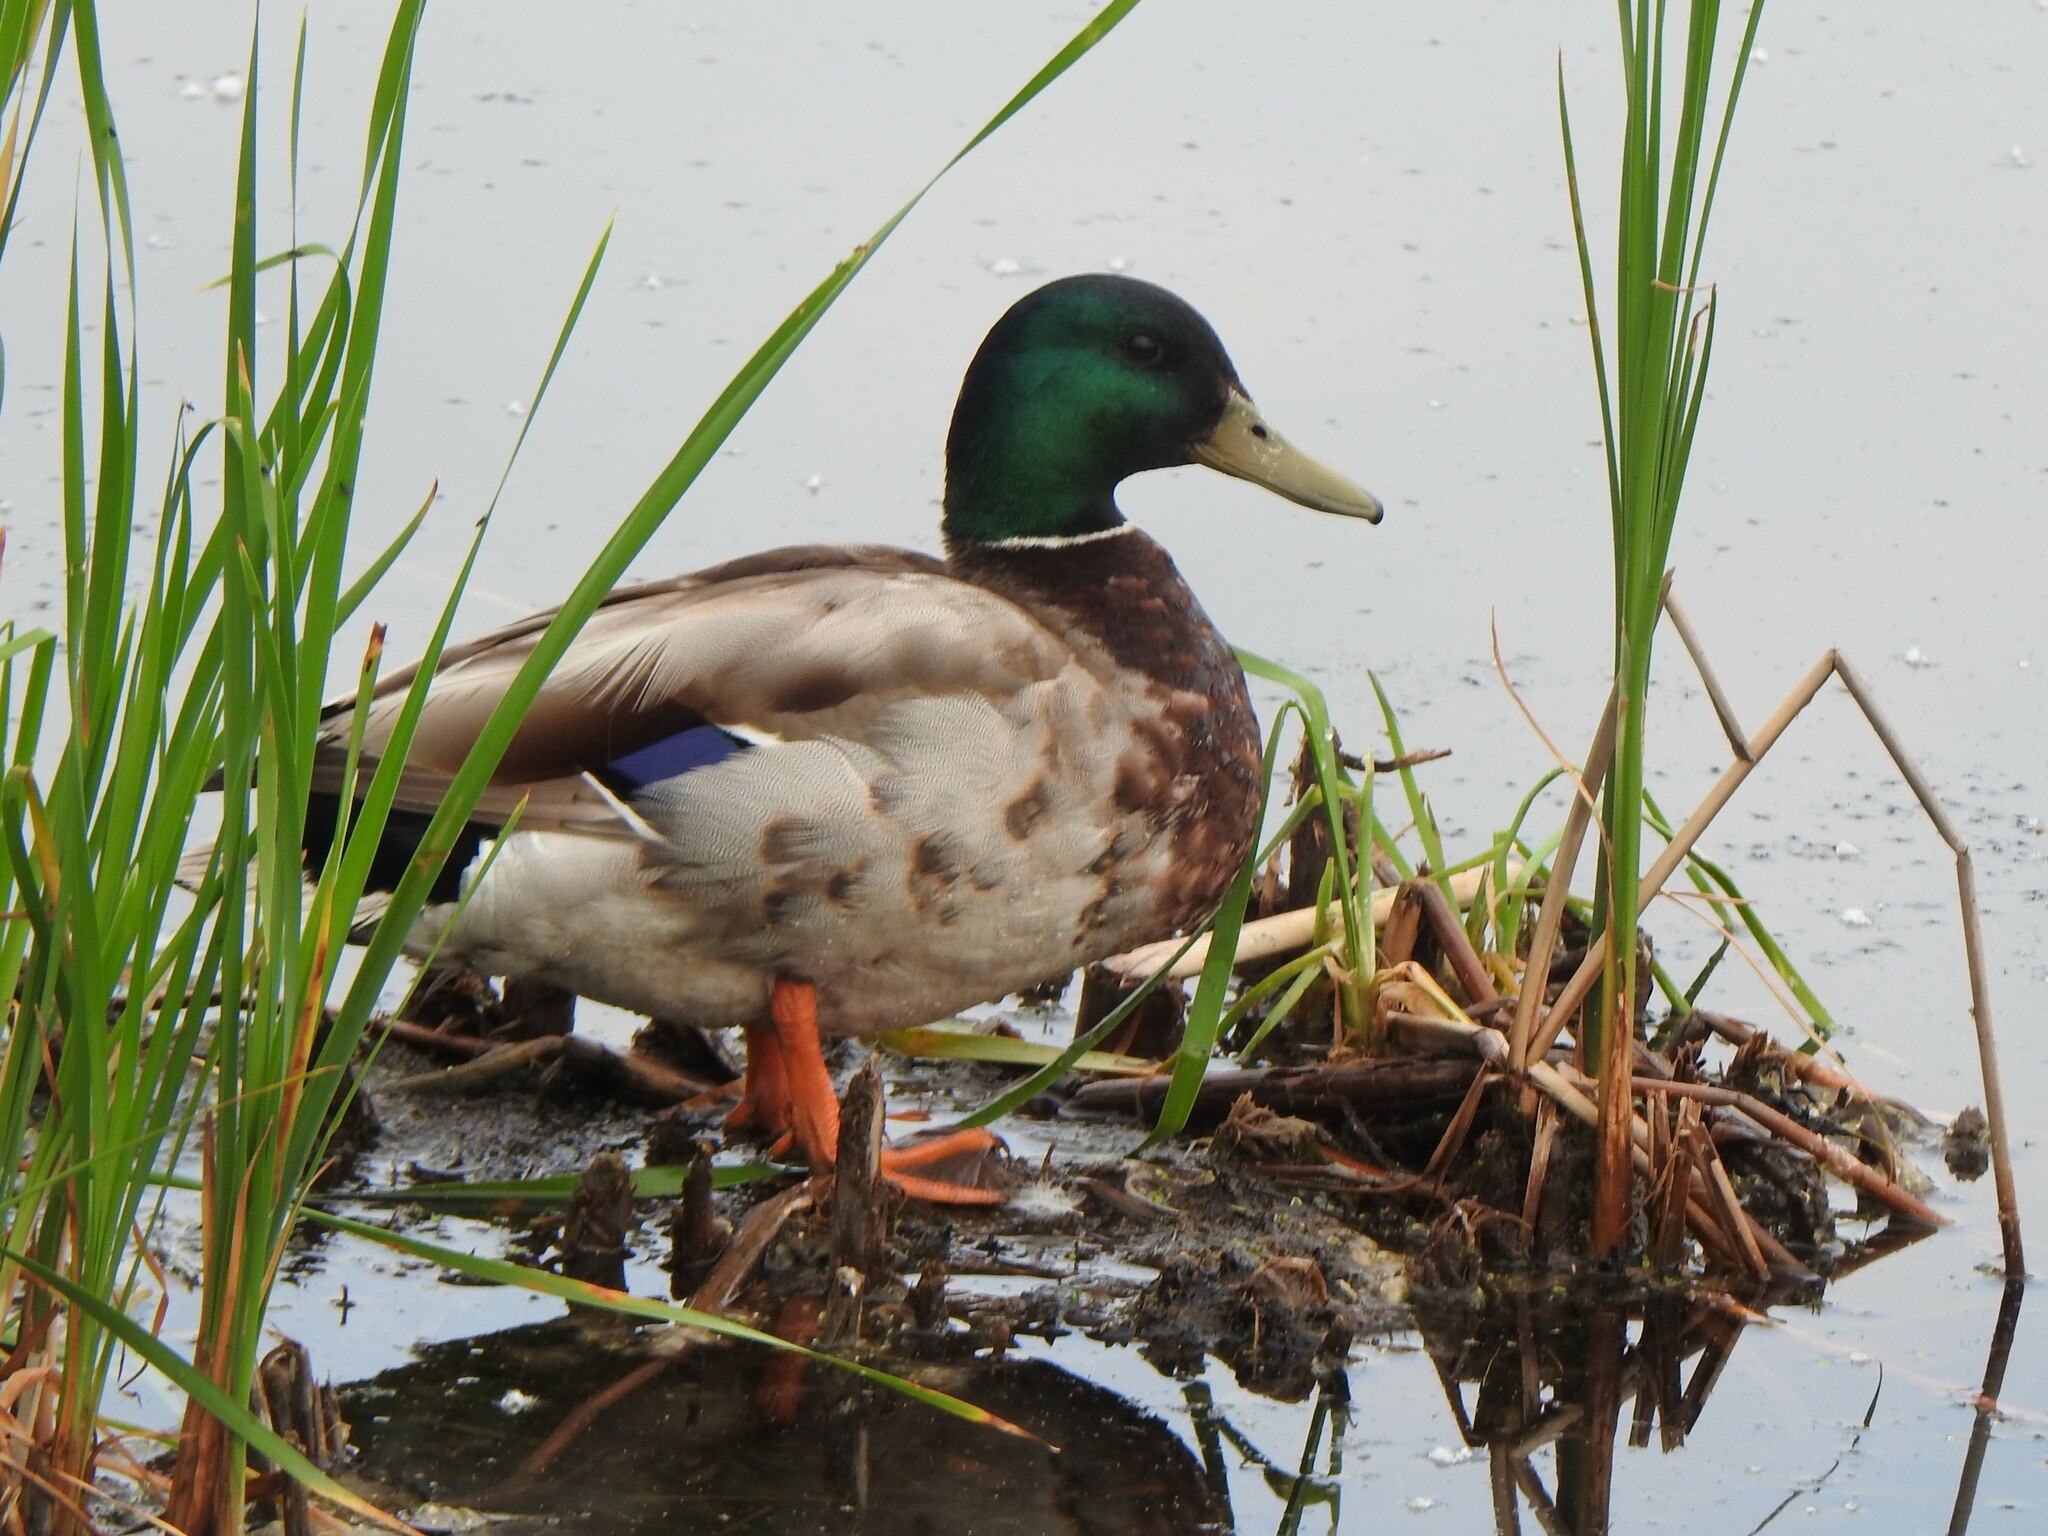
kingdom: Animalia
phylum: Chordata
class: Aves
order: Anseriformes
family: Anatidae
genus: Anas
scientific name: Anas platyrhynchos
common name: Mallard
